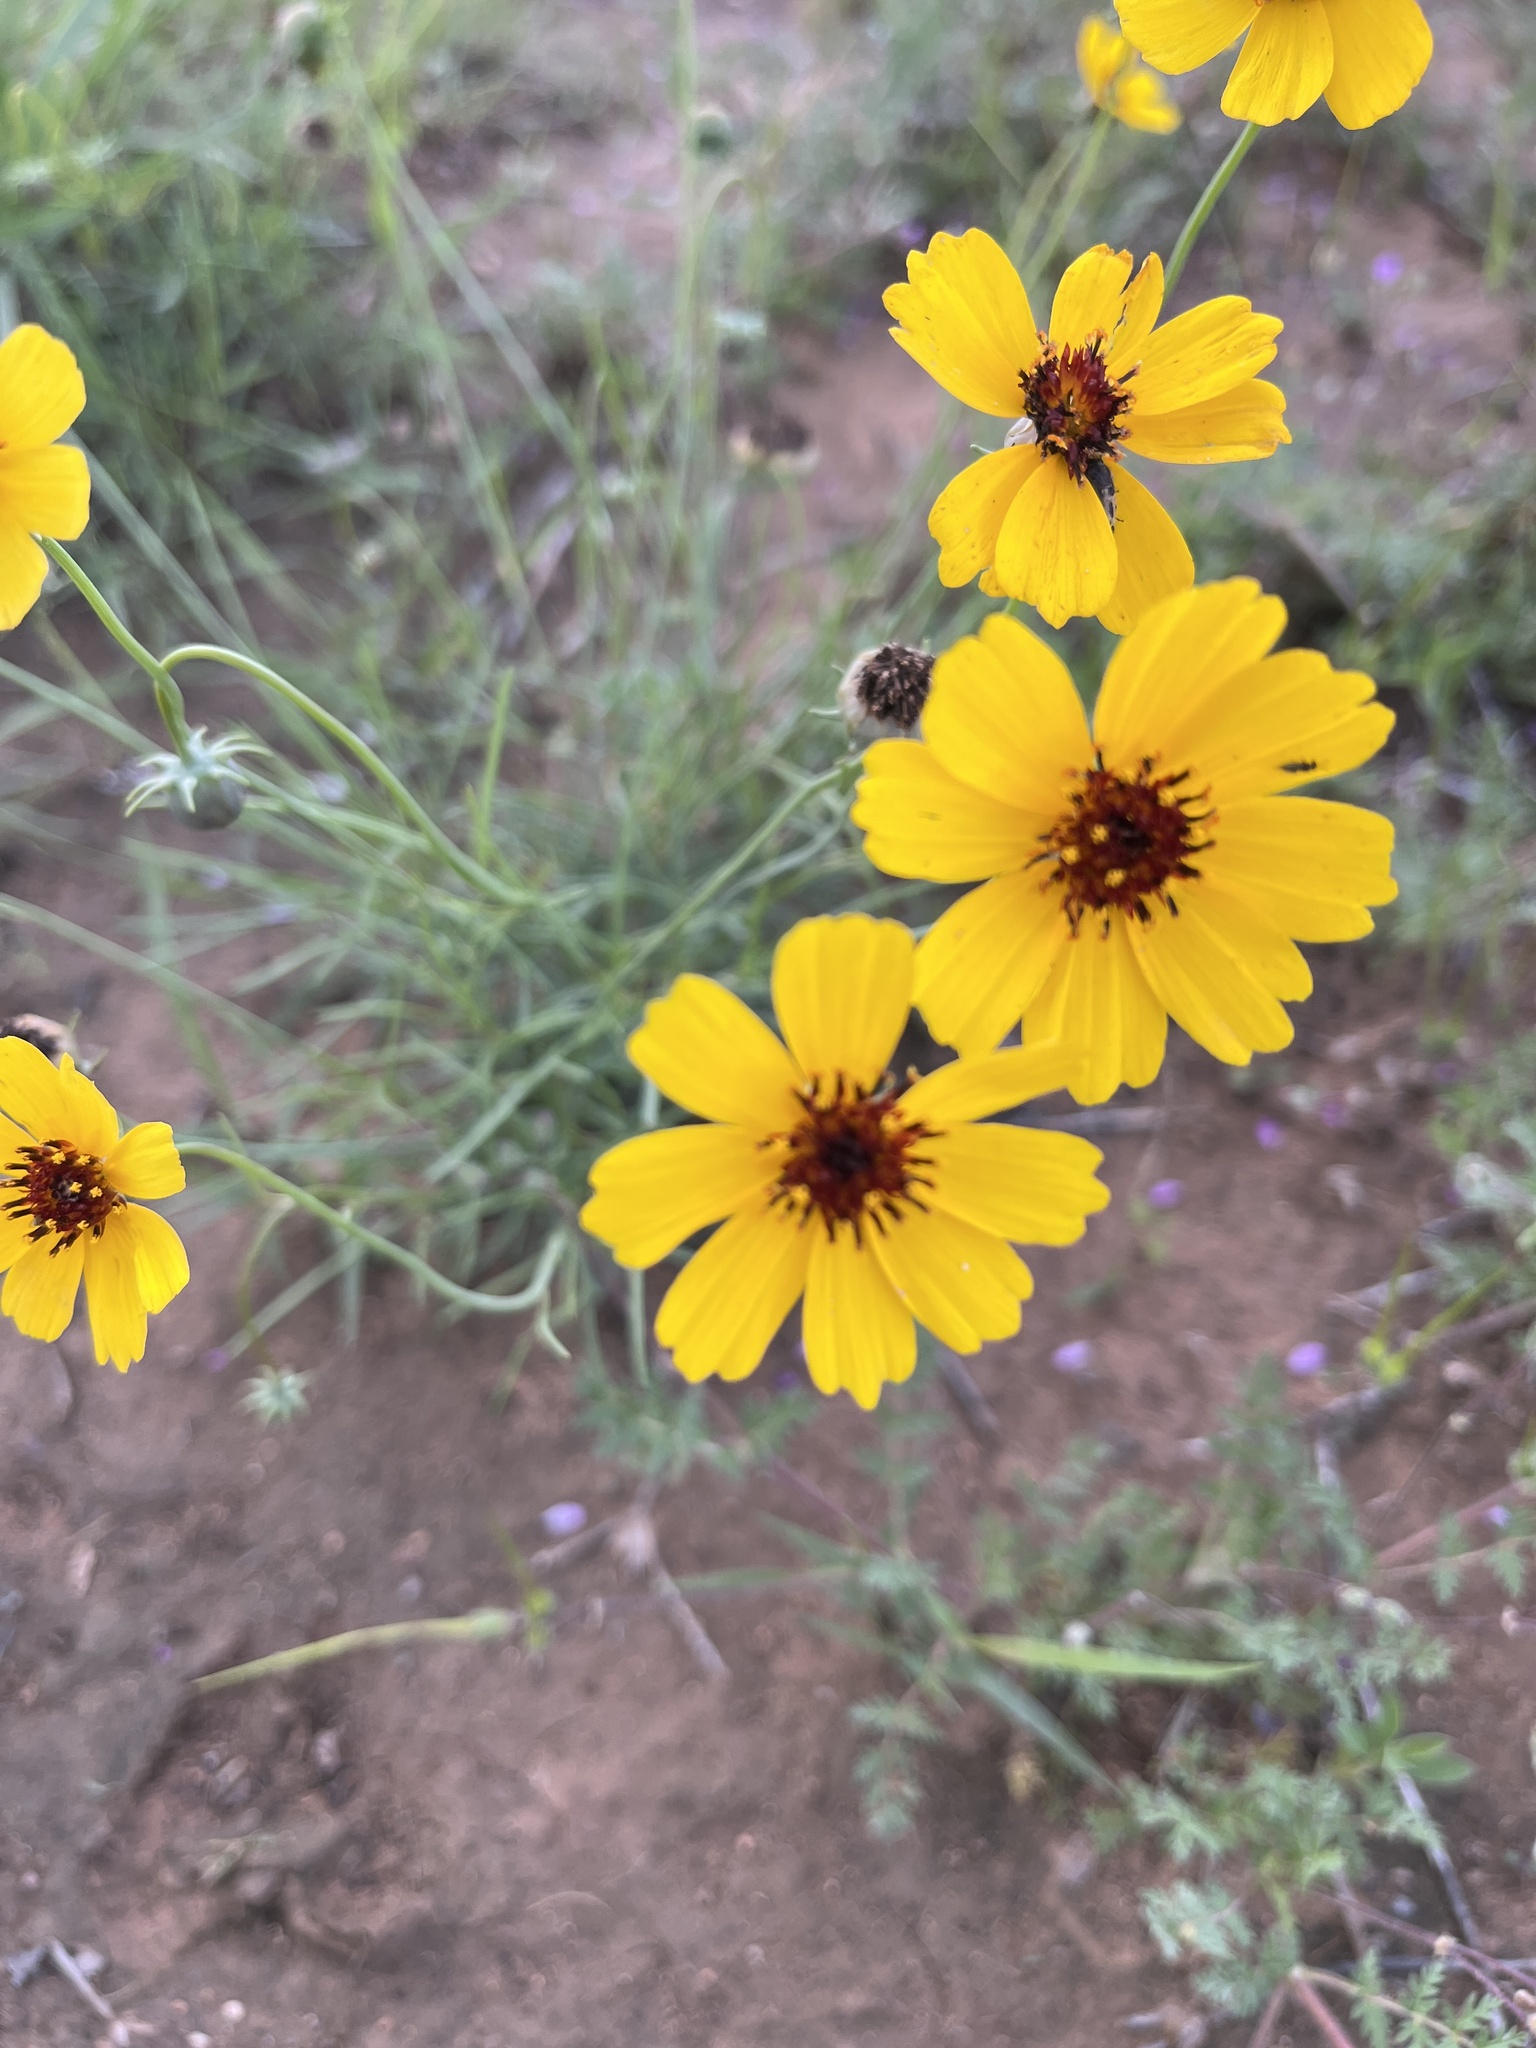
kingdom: Plantae
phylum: Tracheophyta
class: Magnoliopsida
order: Asterales
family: Asteraceae
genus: Thelesperma
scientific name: Thelesperma filifolium
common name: Stiff greenthread
